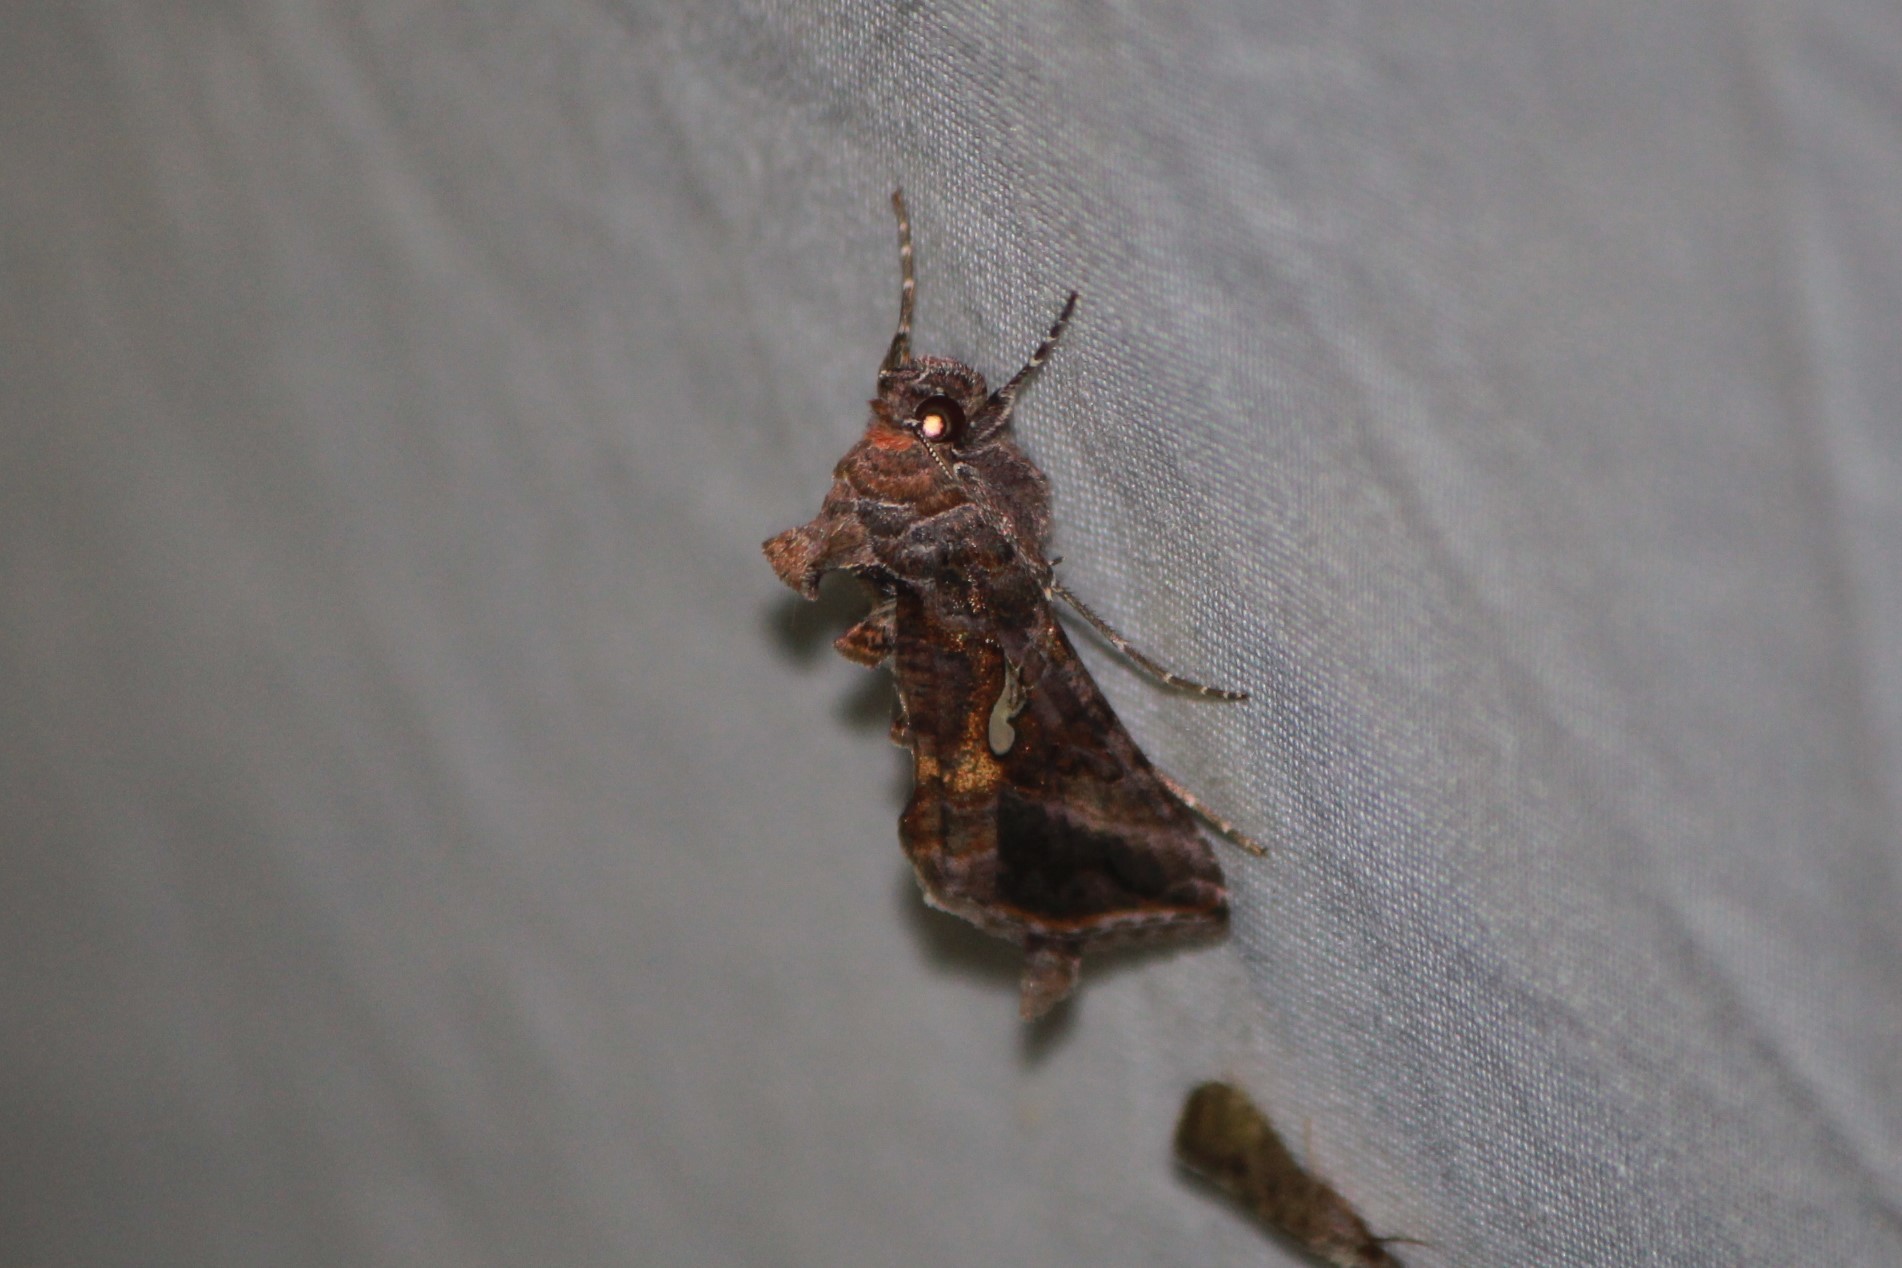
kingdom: Animalia
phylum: Arthropoda
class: Insecta
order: Lepidoptera
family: Noctuidae
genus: Autographa
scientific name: Autographa precationis
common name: Common looper moth
